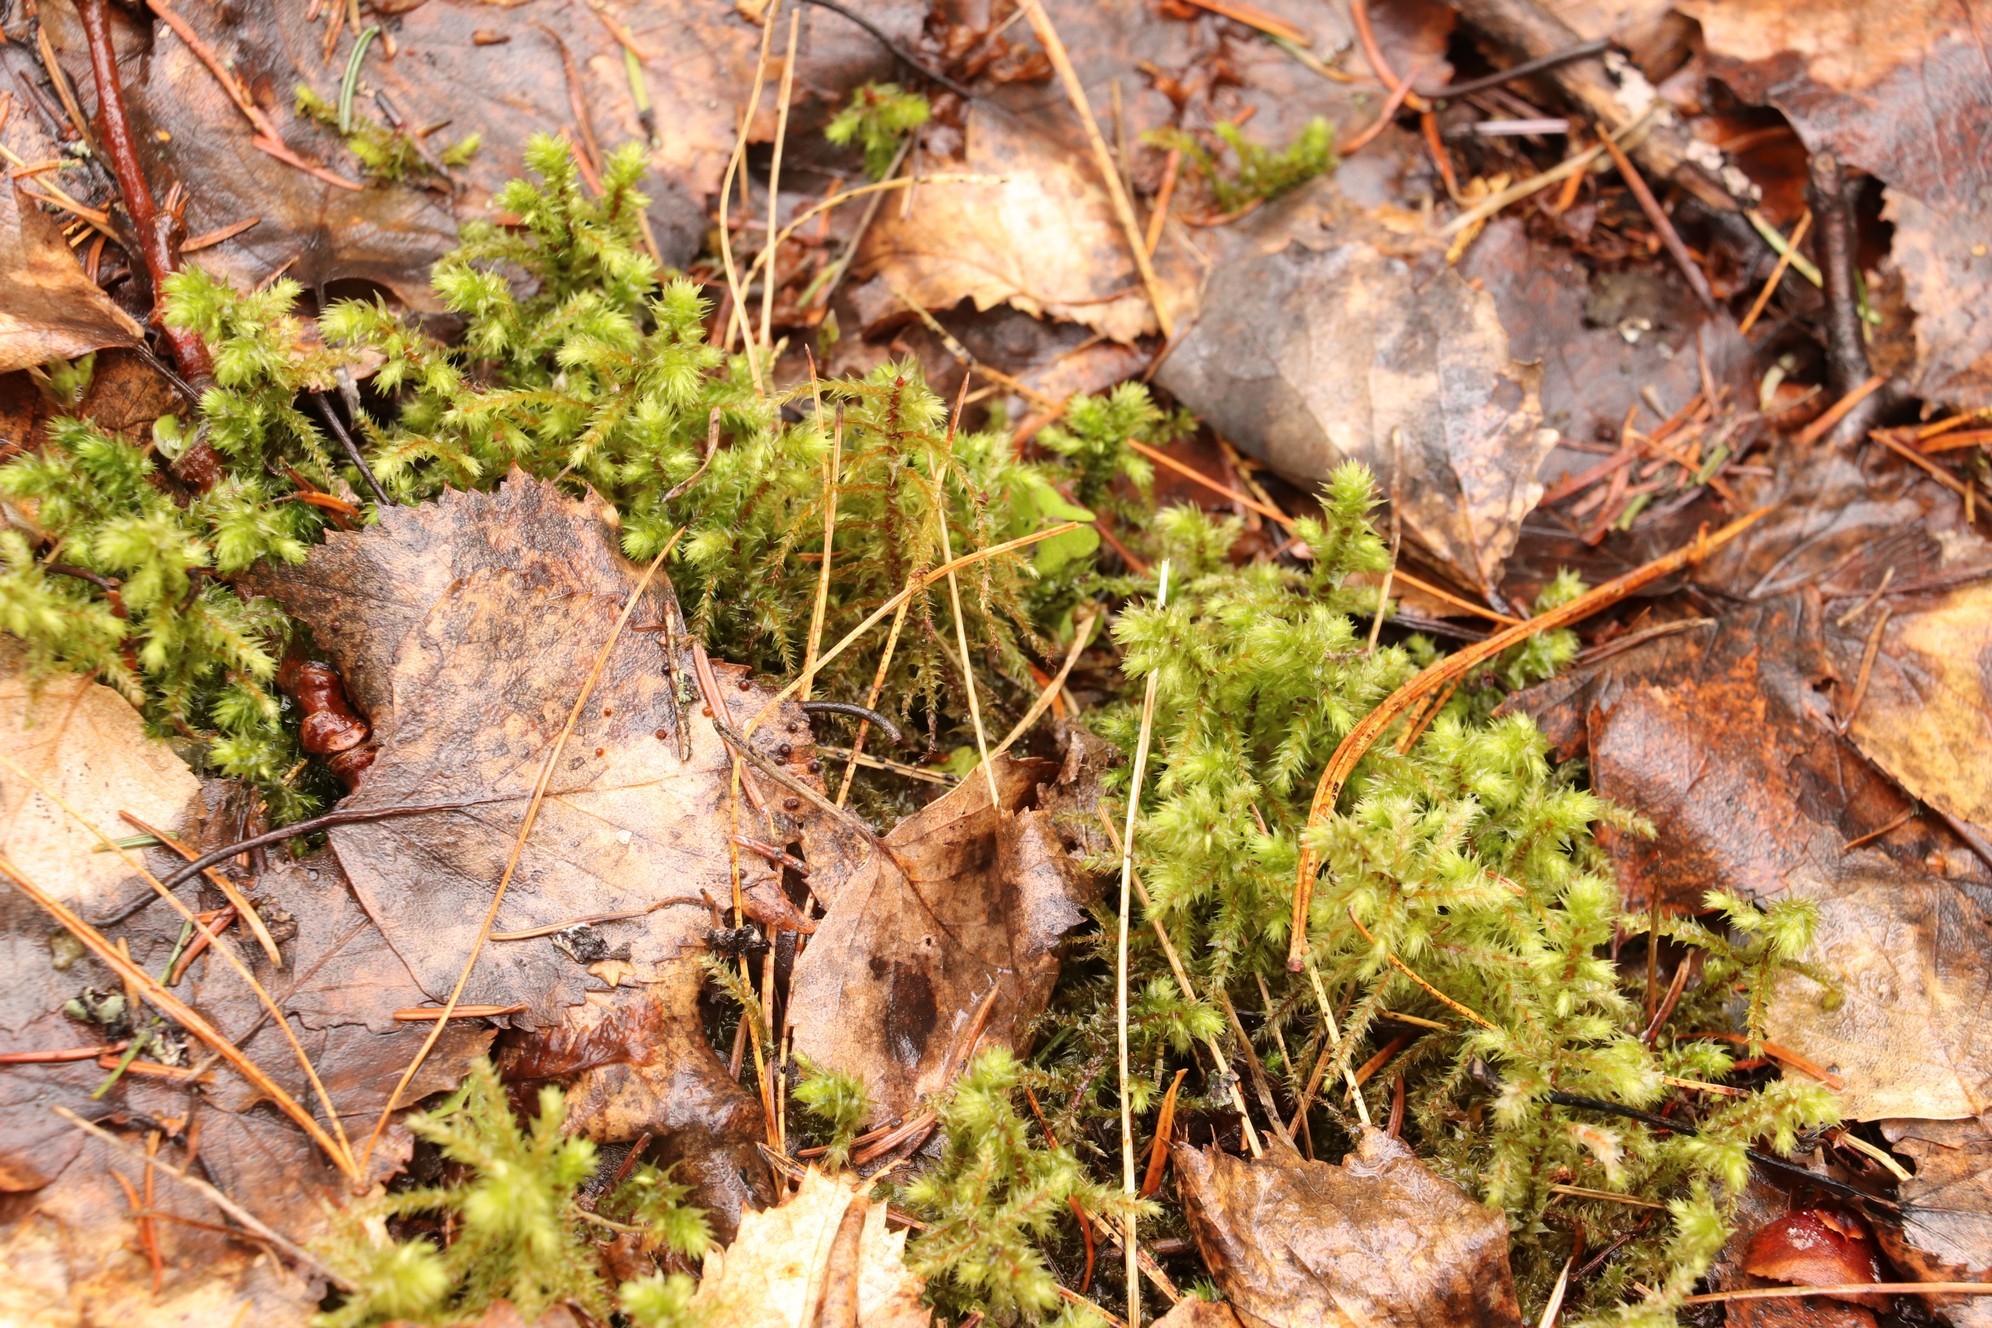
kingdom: Plantae
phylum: Bryophyta
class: Bryopsida
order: Hypnales
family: Hylocomiaceae
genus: Hylocomiadelphus
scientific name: Hylocomiadelphus triquetrus
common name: Rough goose neck moss
